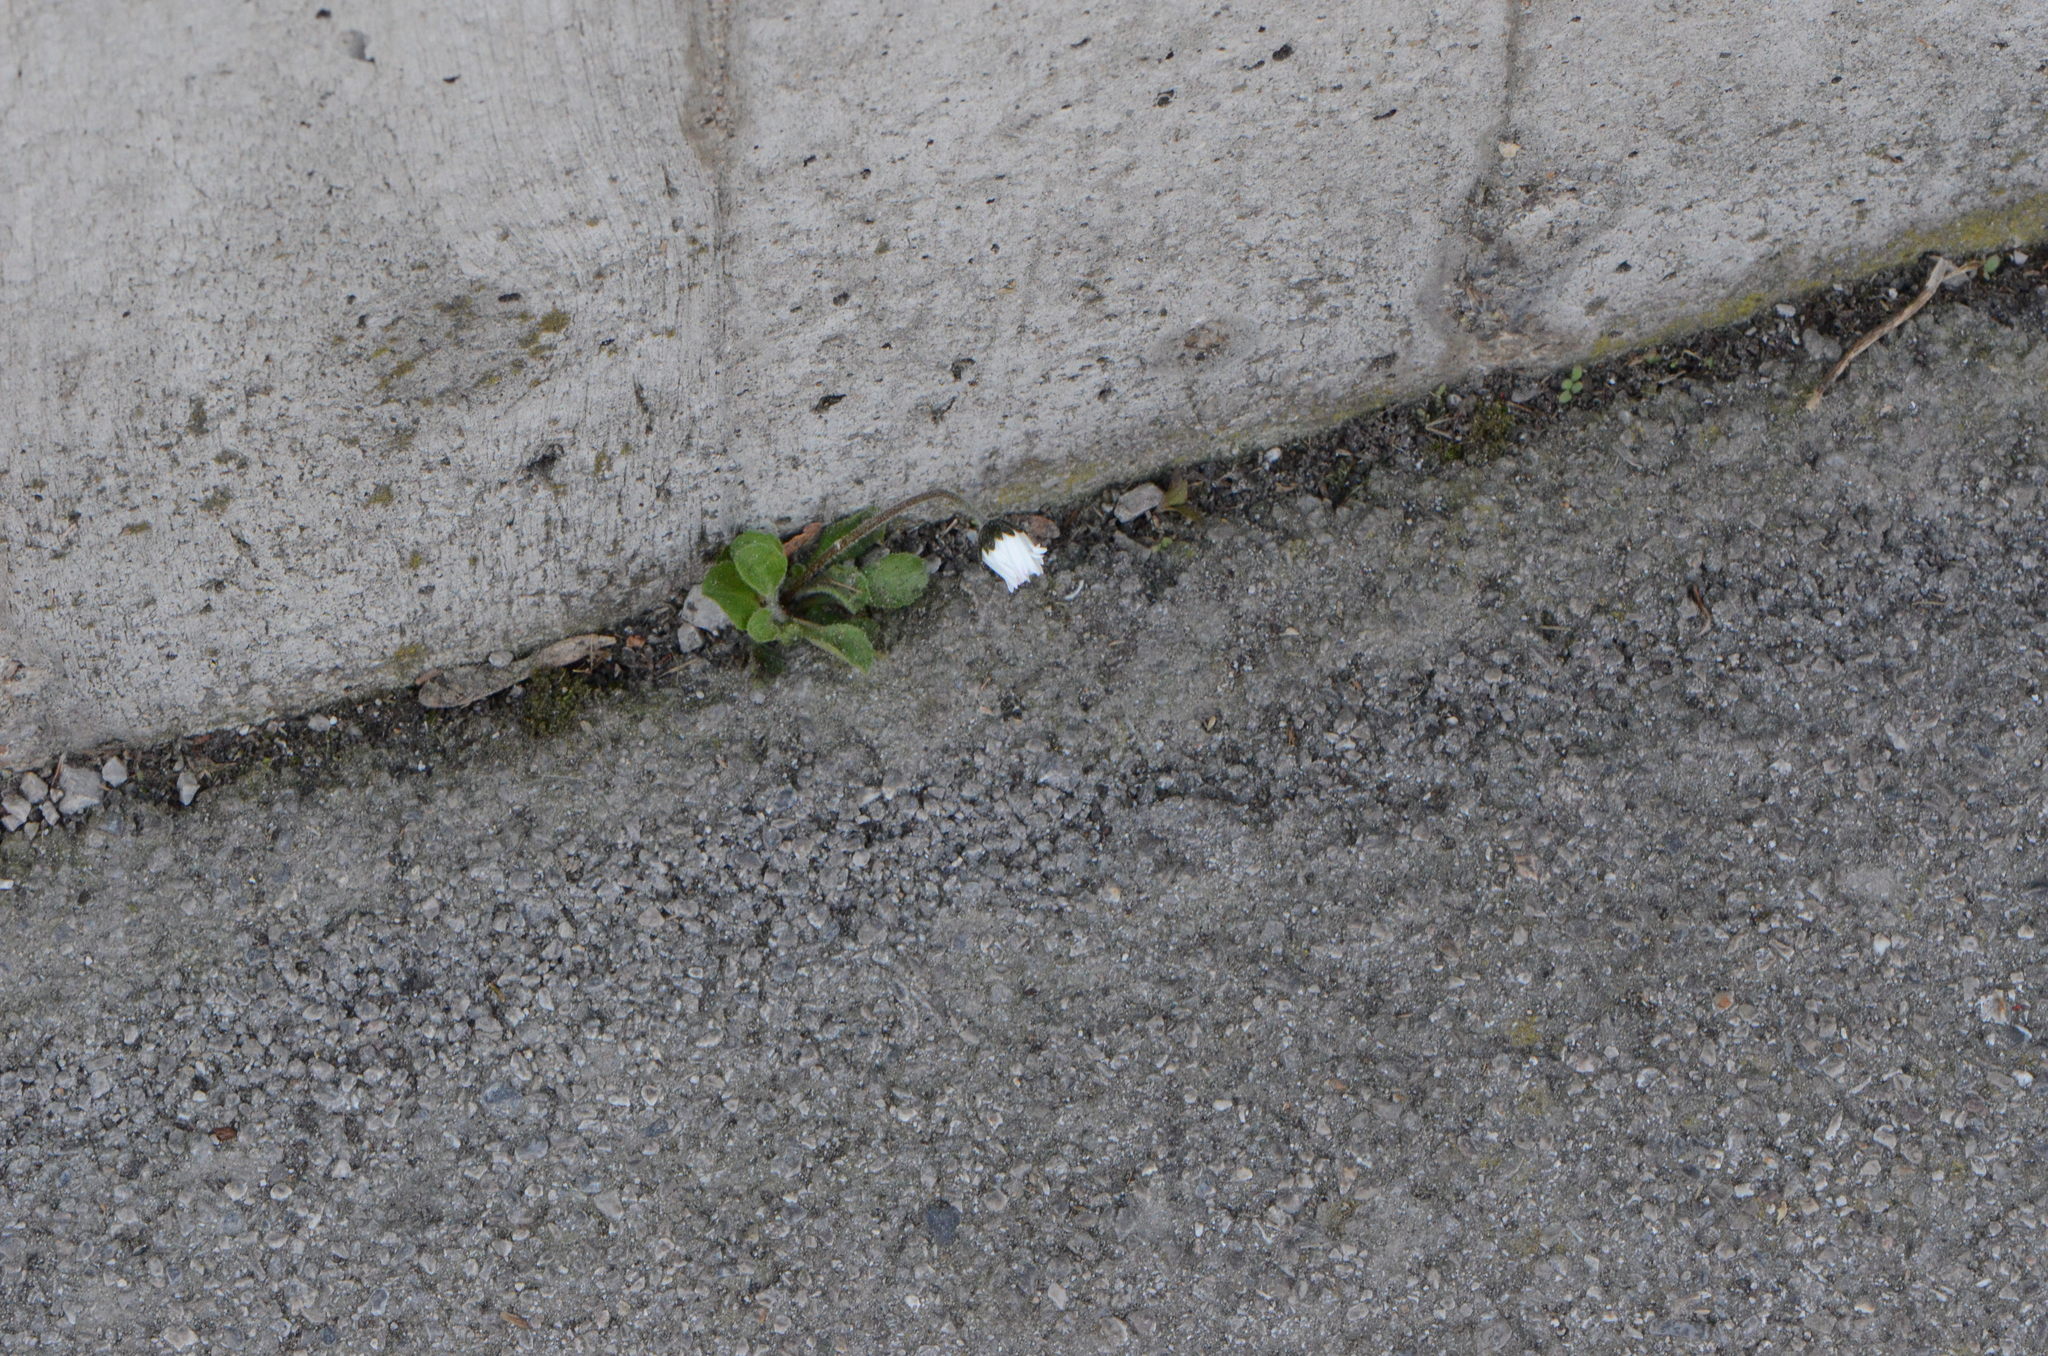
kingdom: Plantae
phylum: Tracheophyta
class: Magnoliopsida
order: Asterales
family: Asteraceae
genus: Bellis
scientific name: Bellis perennis
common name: Lawndaisy
